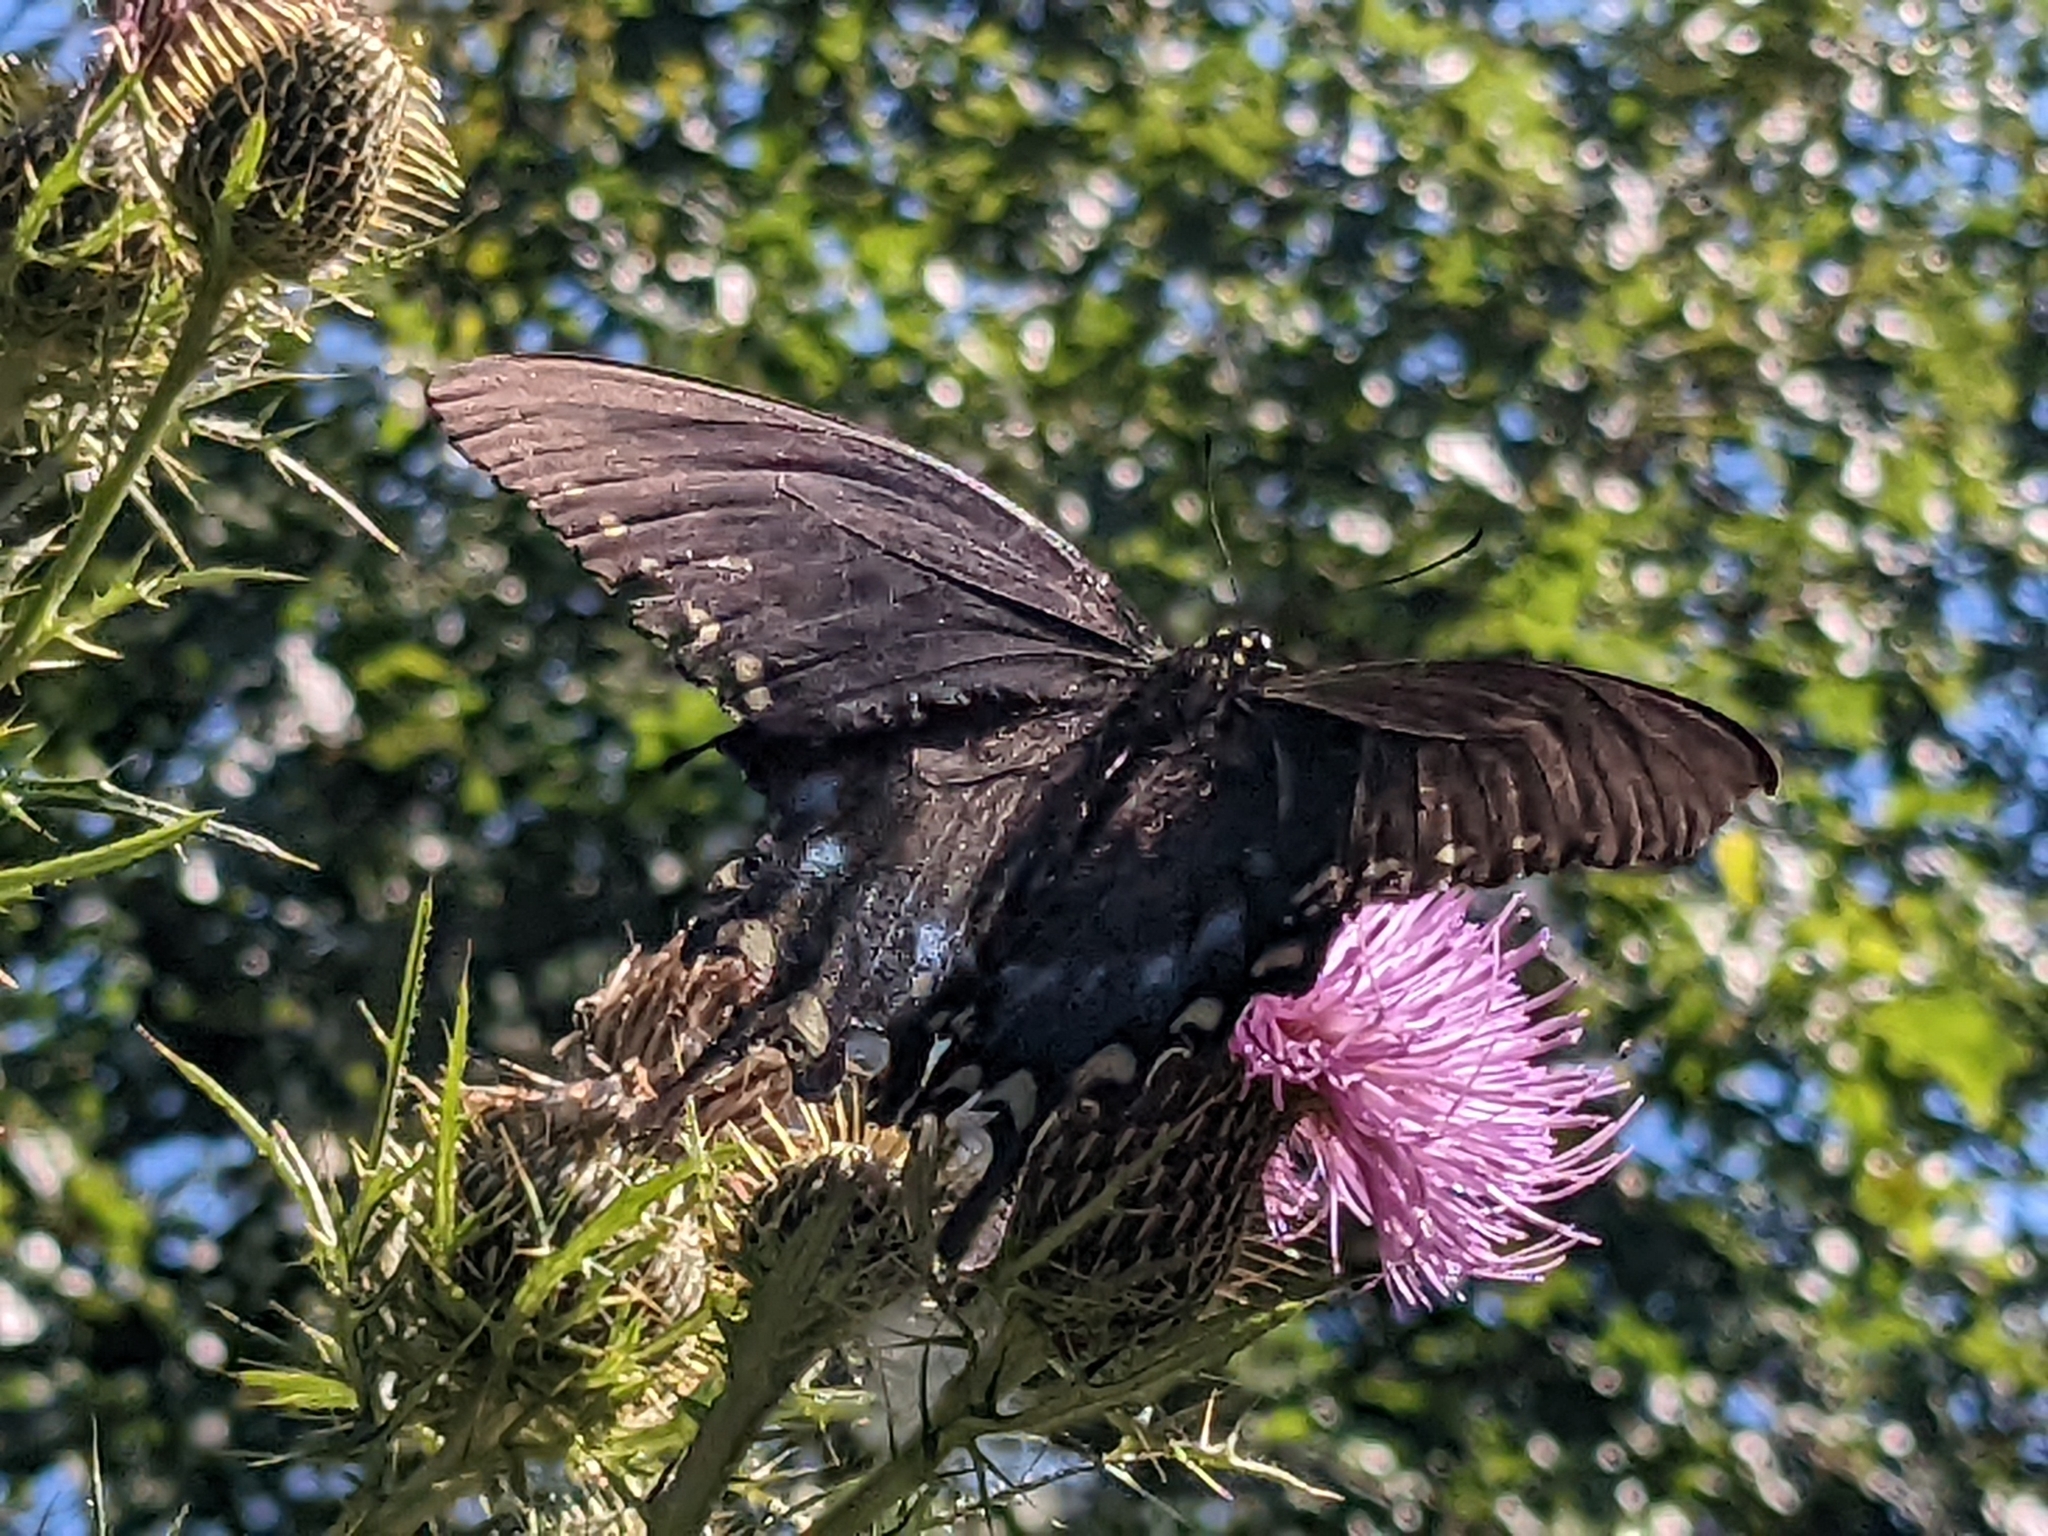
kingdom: Animalia
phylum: Arthropoda
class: Insecta
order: Lepidoptera
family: Papilionidae
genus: Papilio
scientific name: Papilio troilus
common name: Spicebush swallowtail
